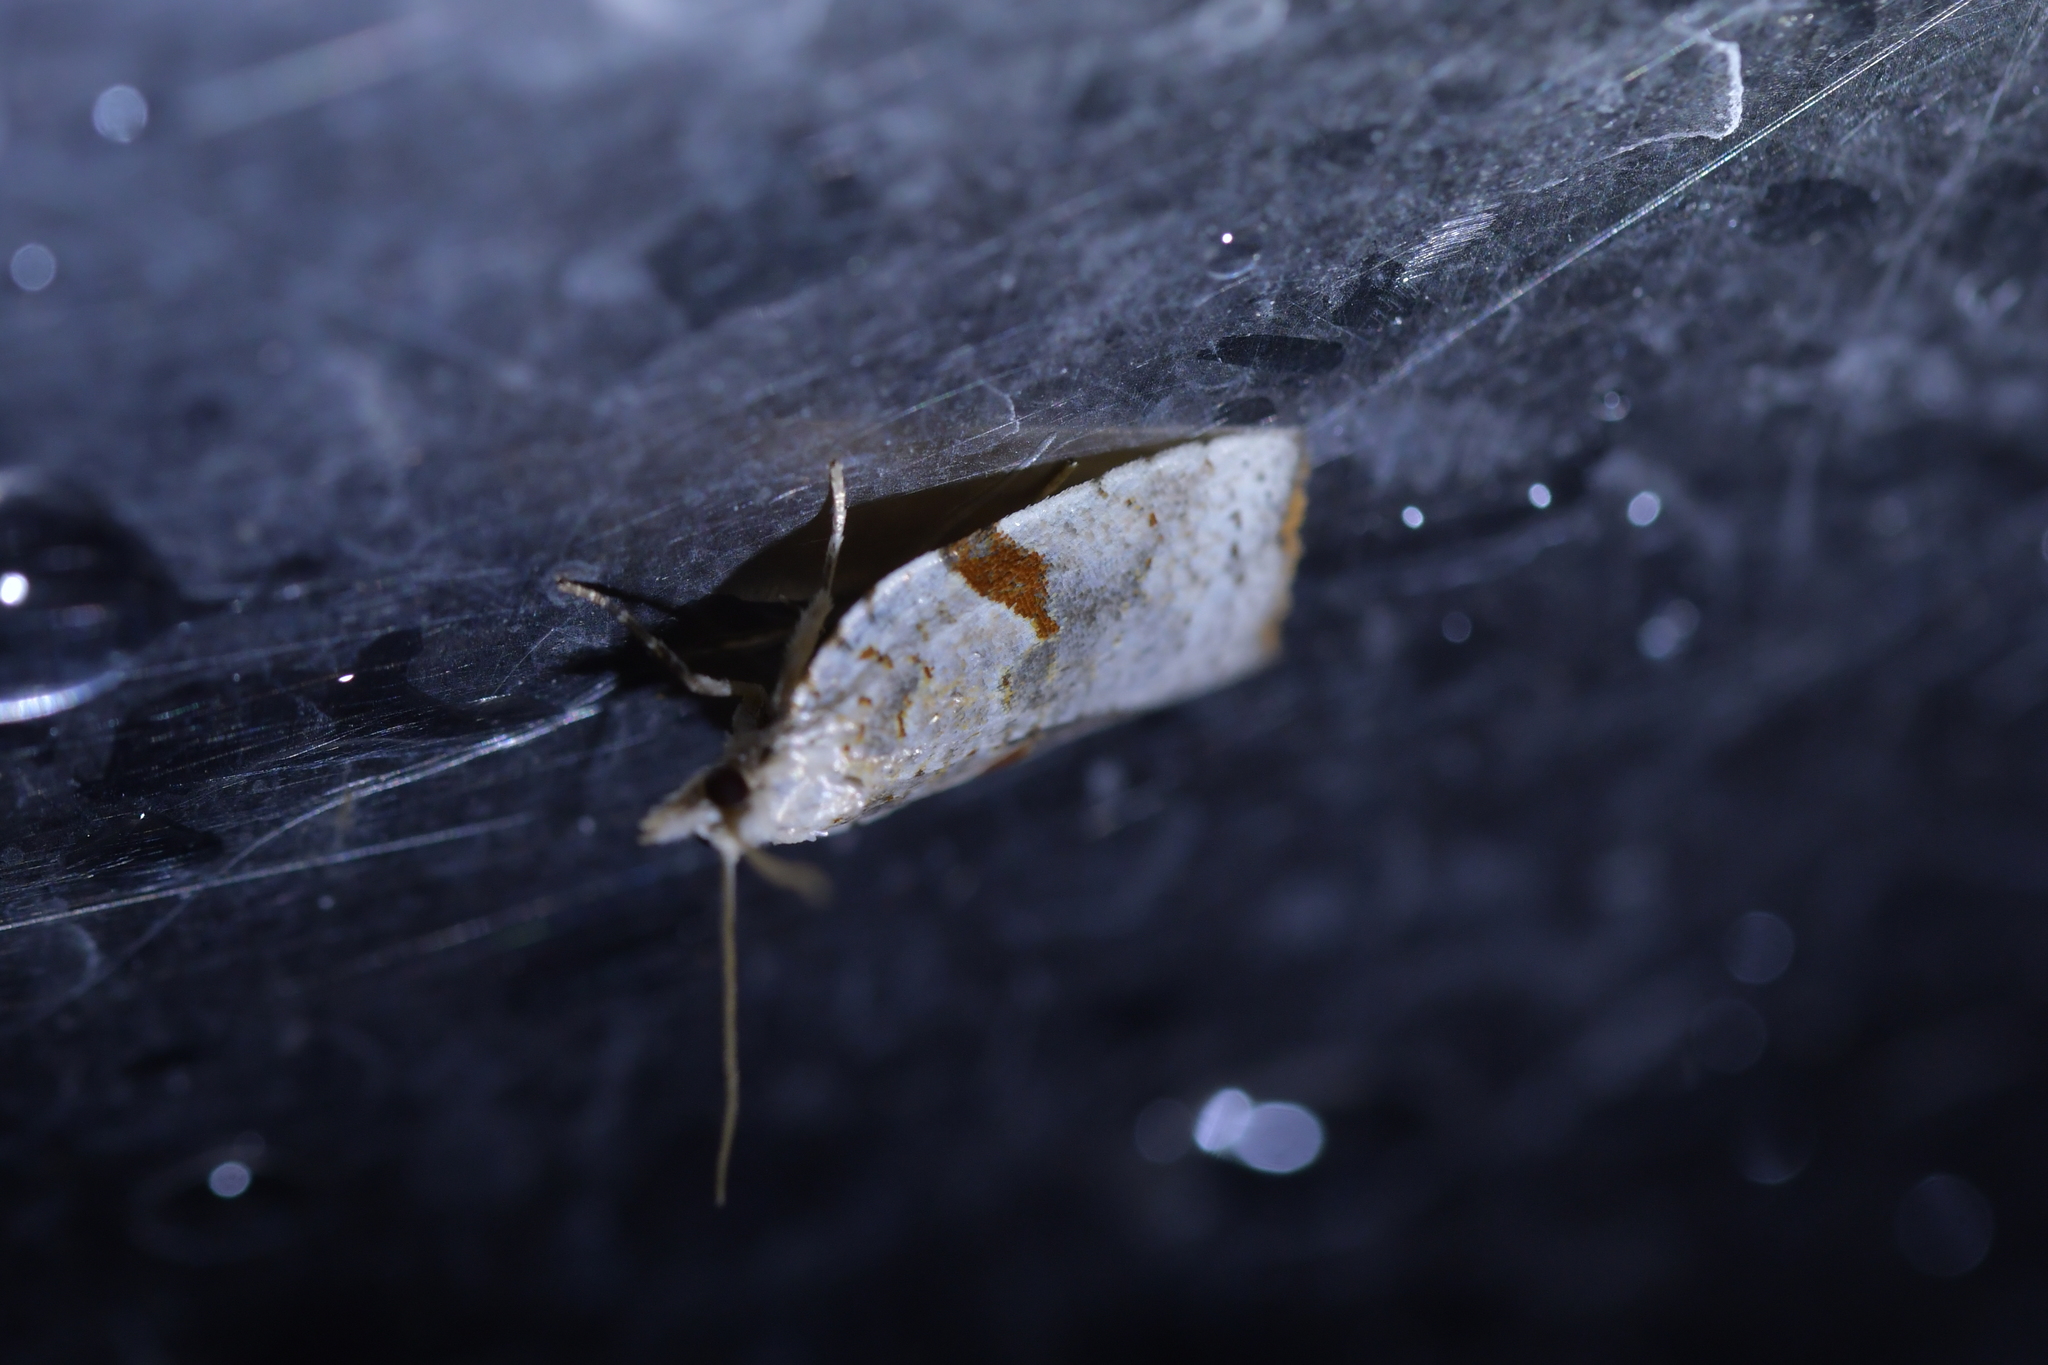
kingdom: Animalia
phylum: Arthropoda
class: Insecta
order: Lepidoptera
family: Tortricidae
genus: Leucotenes
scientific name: Leucotenes coprosmae
